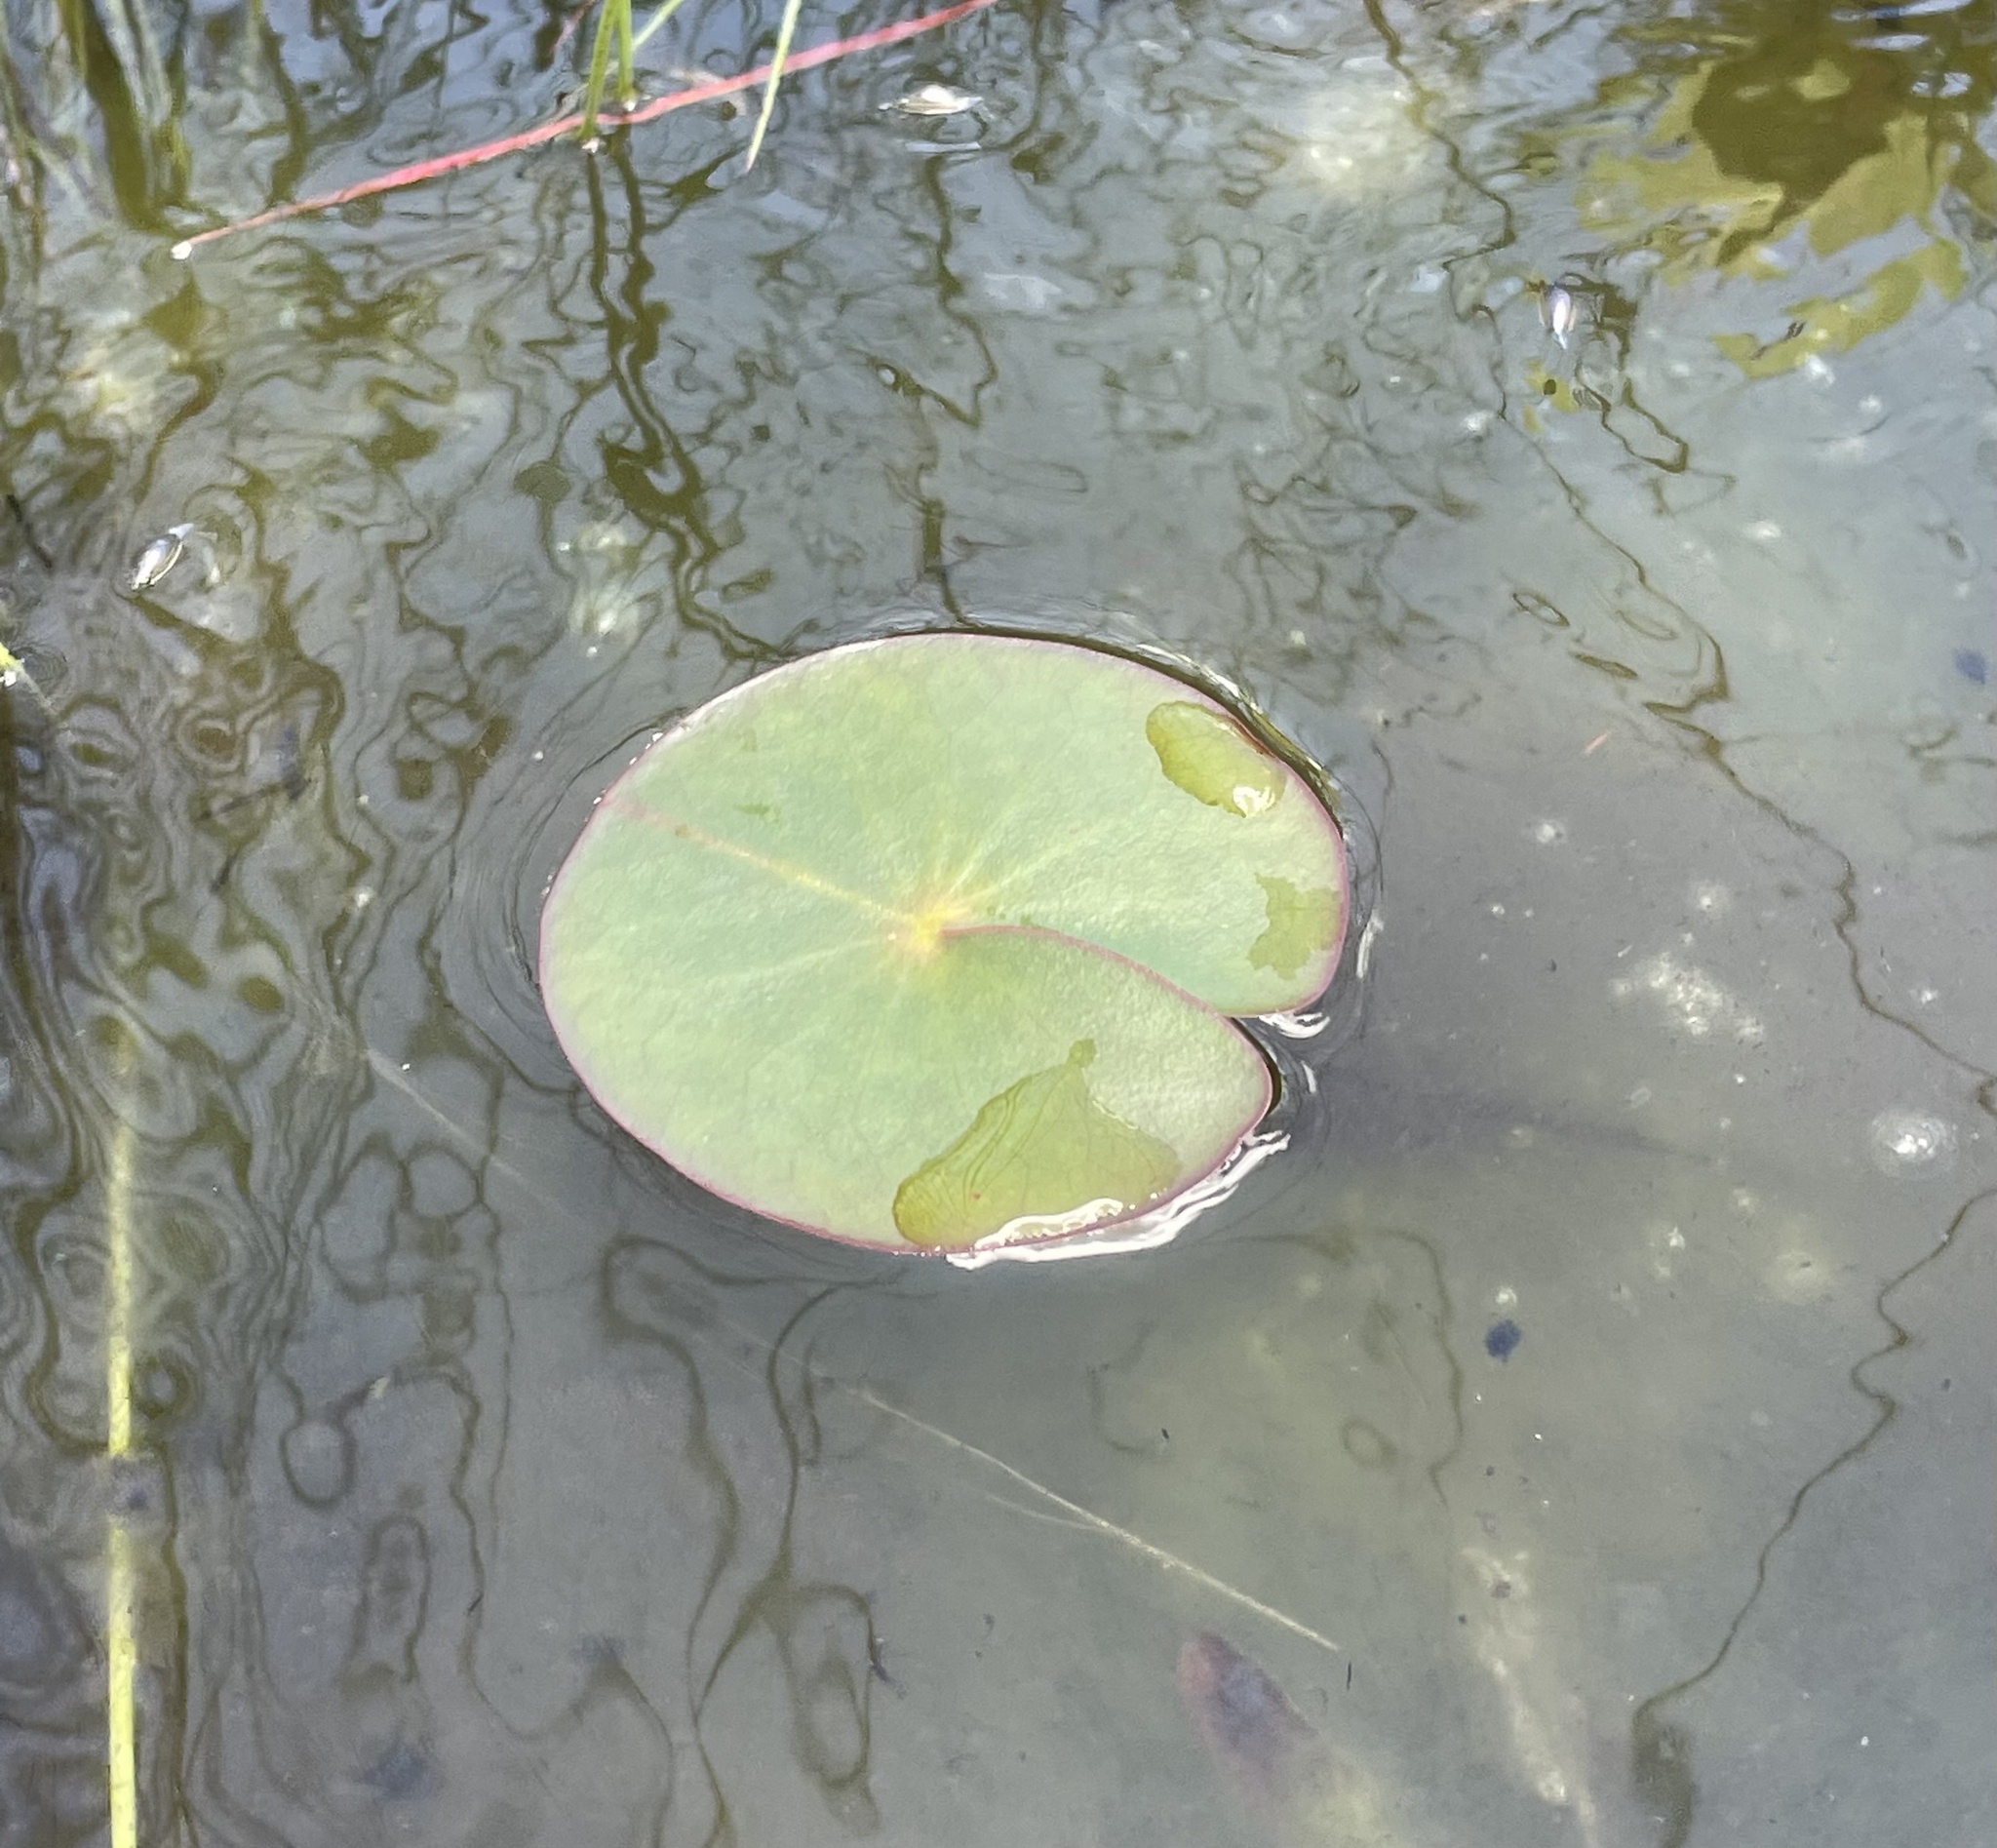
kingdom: Plantae
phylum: Tracheophyta
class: Magnoliopsida
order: Nymphaeales
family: Nymphaeaceae
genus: Nymphaea
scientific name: Nymphaea sulphurea
